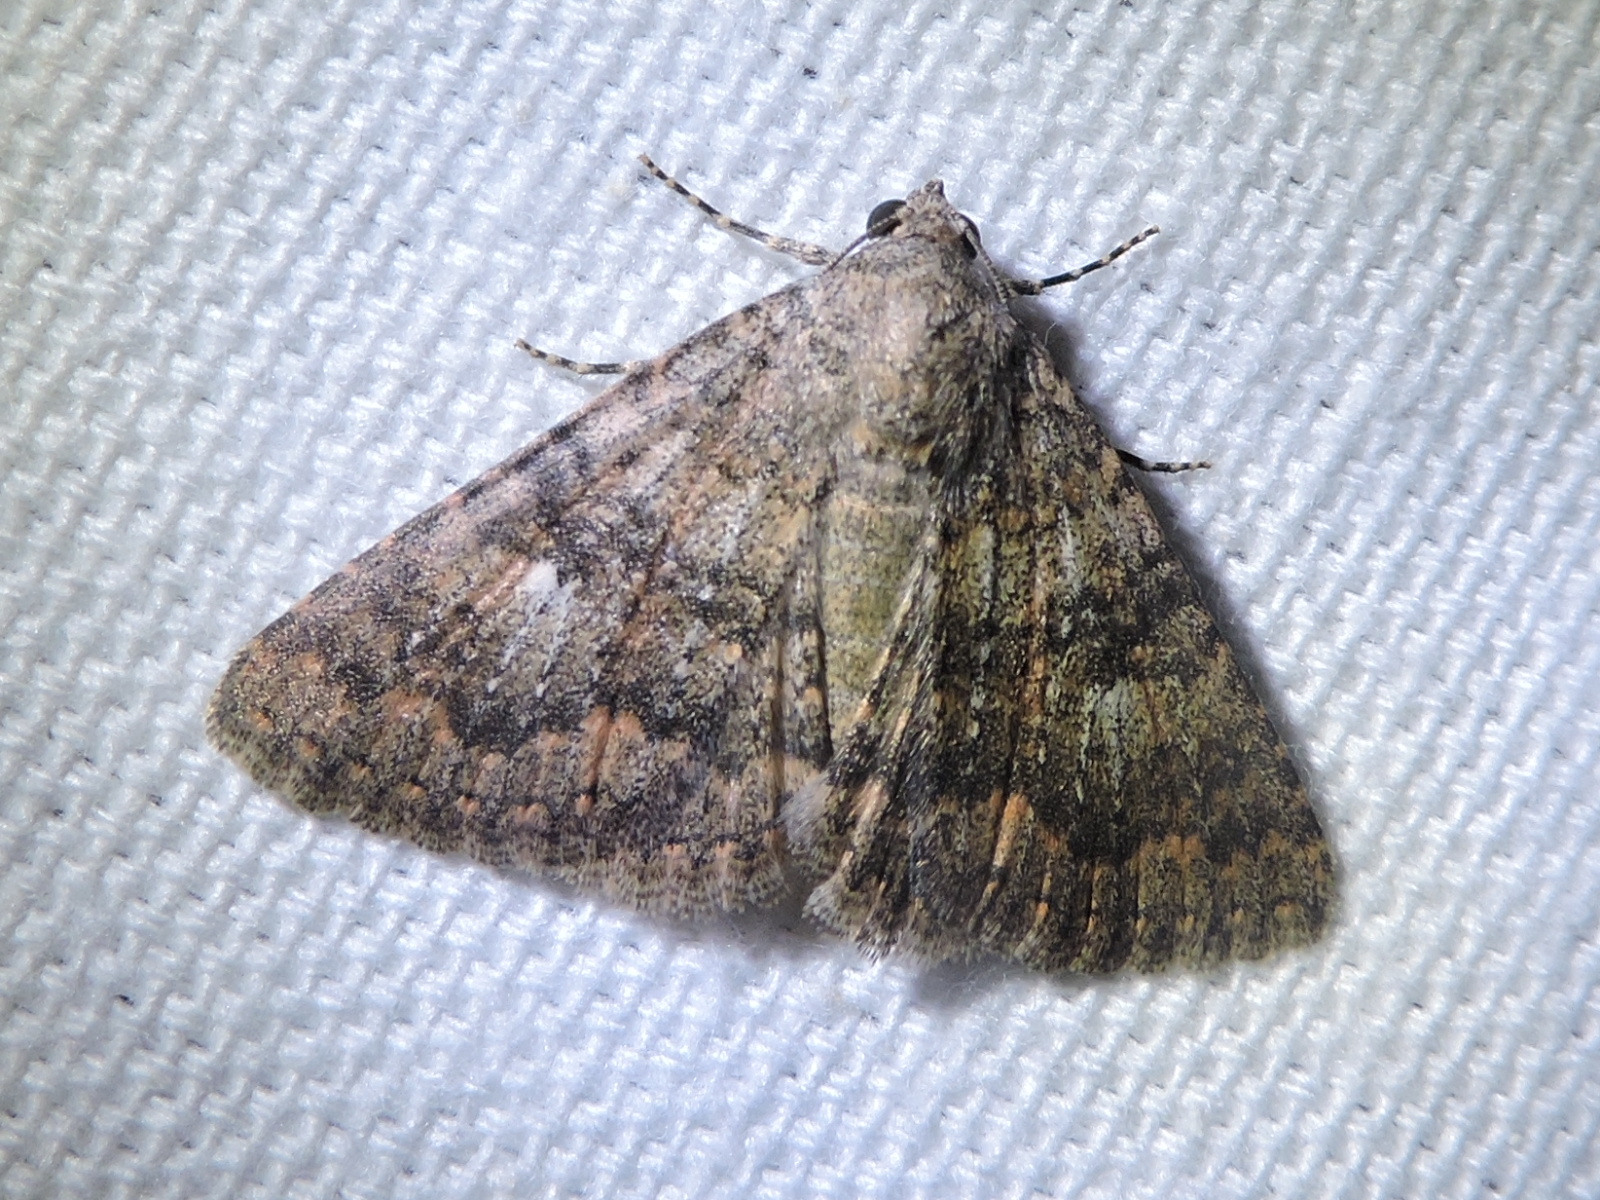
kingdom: Animalia
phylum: Arthropoda
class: Insecta
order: Lepidoptera
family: Erebidae
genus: Matigramma
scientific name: Matigramma emmilta
